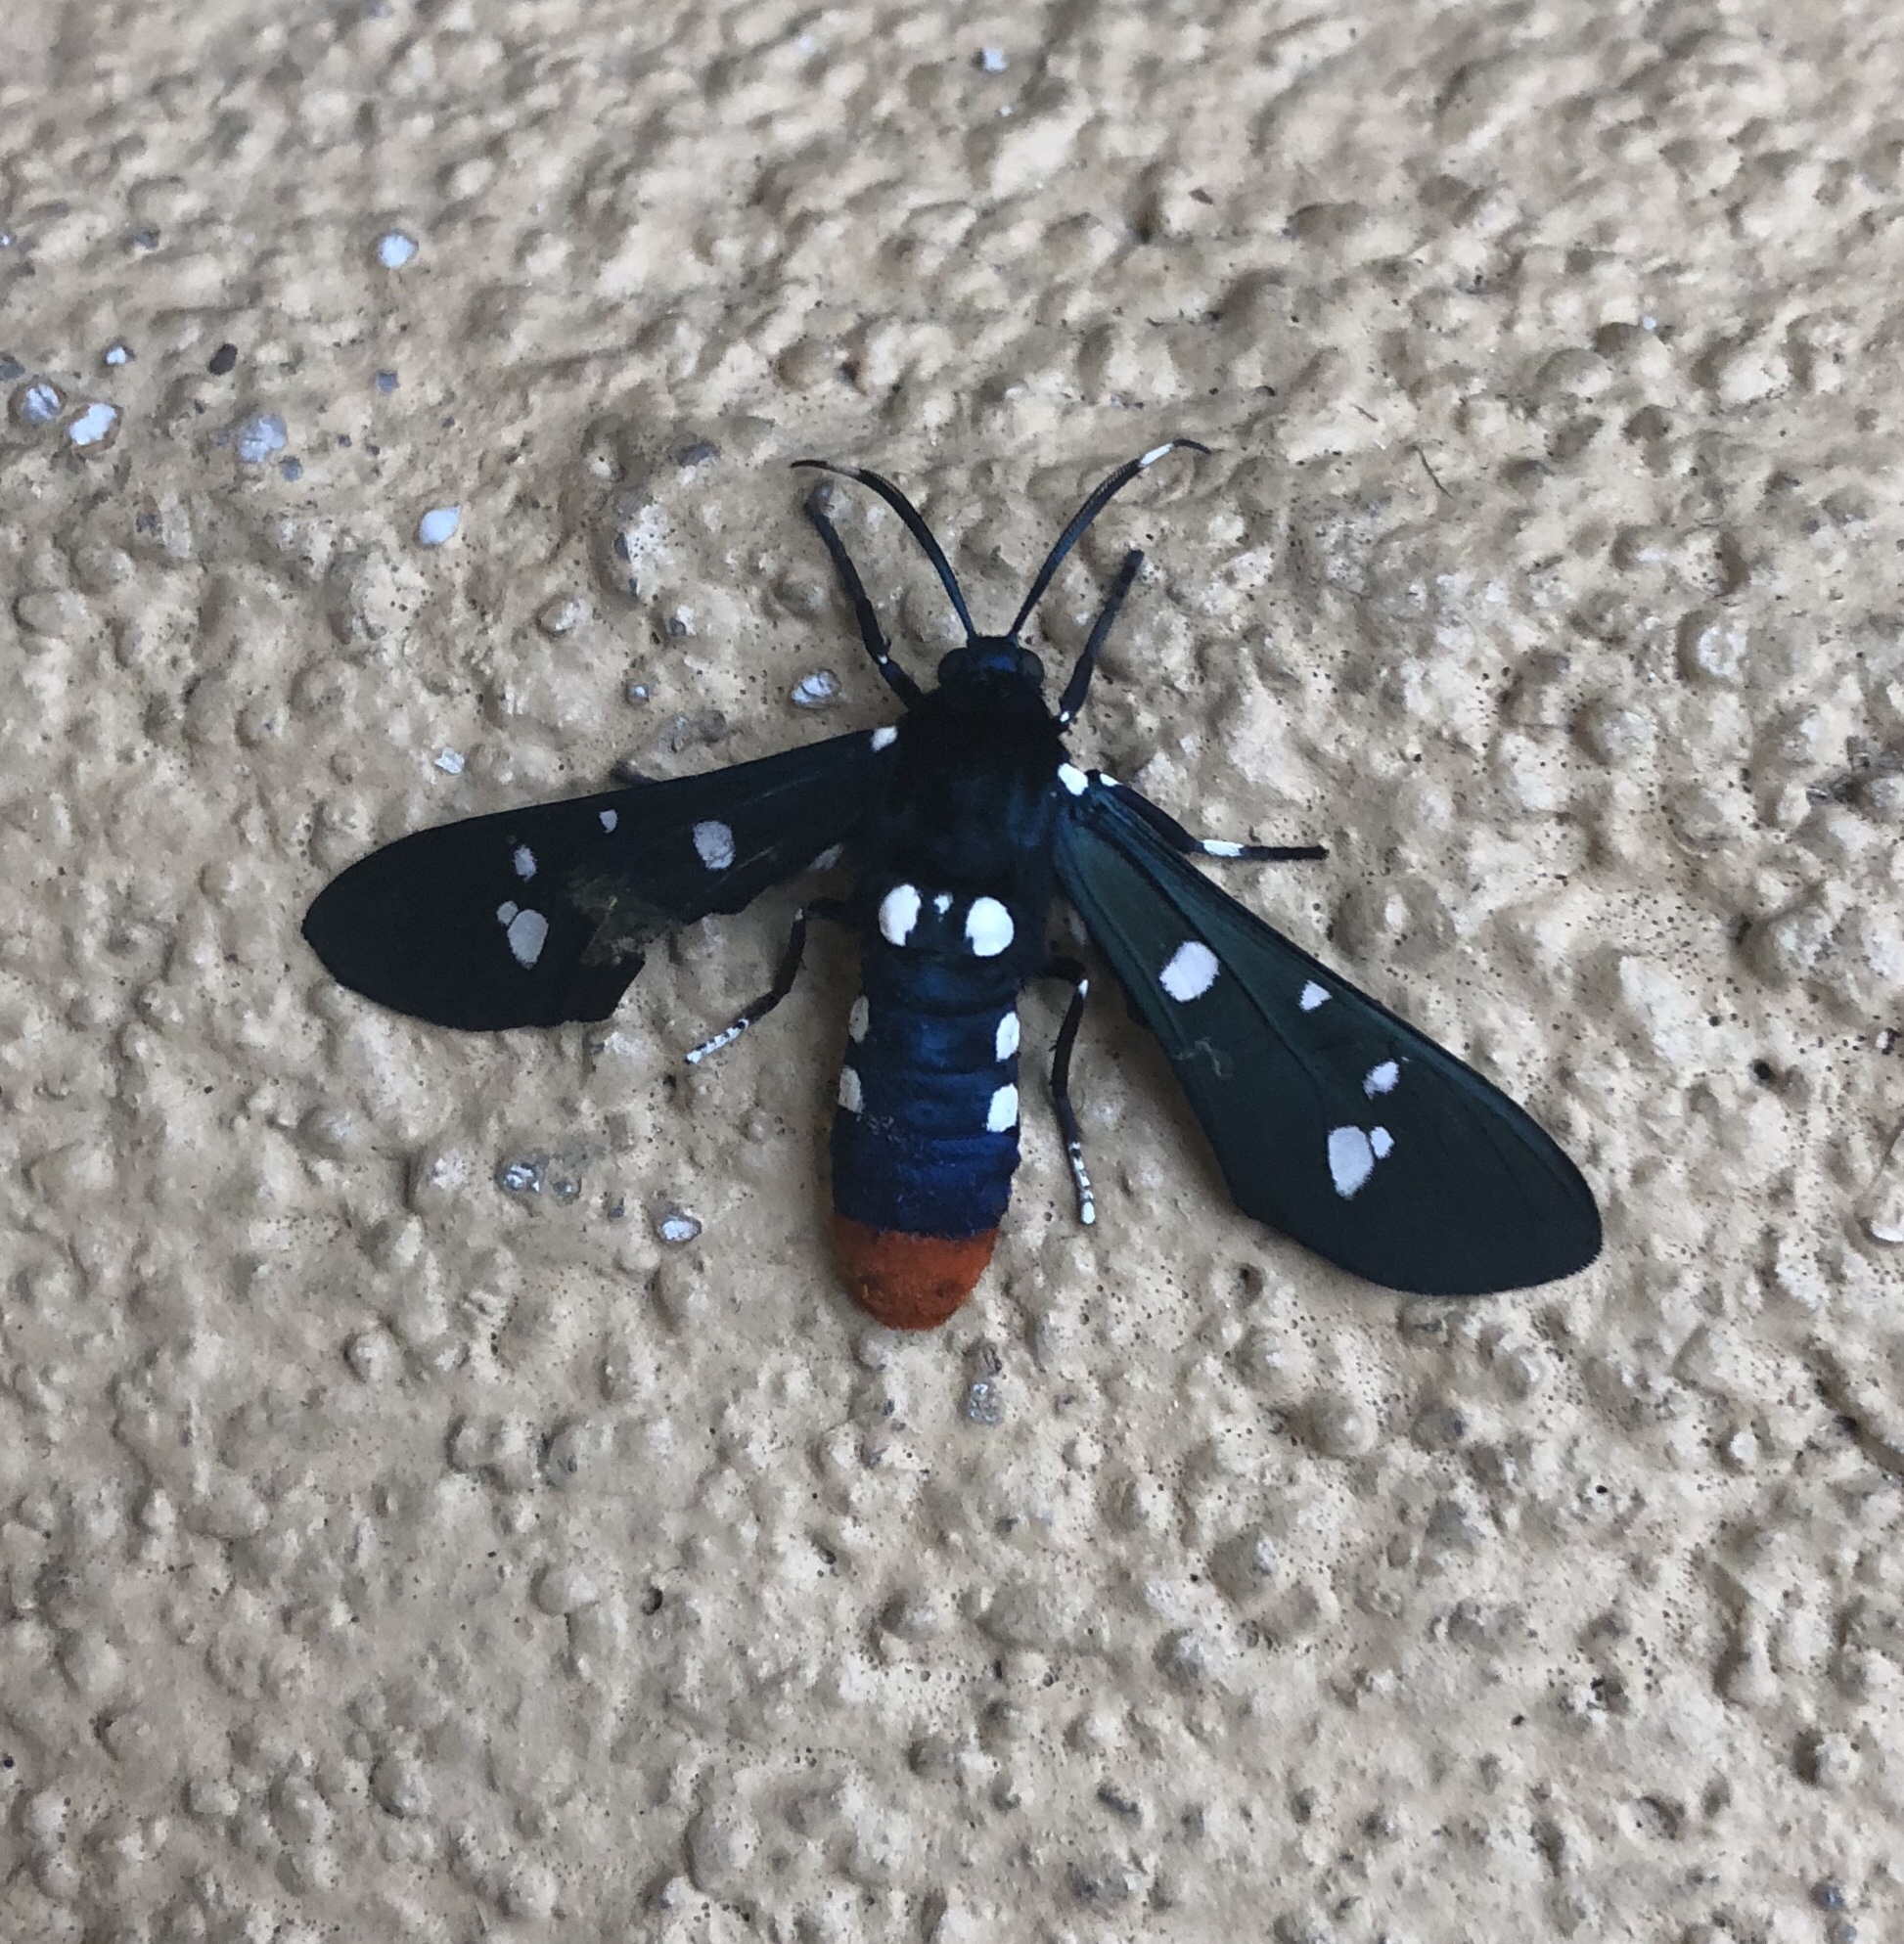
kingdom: Animalia
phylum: Arthropoda
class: Insecta
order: Lepidoptera
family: Erebidae
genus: Syntomeida
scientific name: Syntomeida epilais
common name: Polka-dot wasp moth
